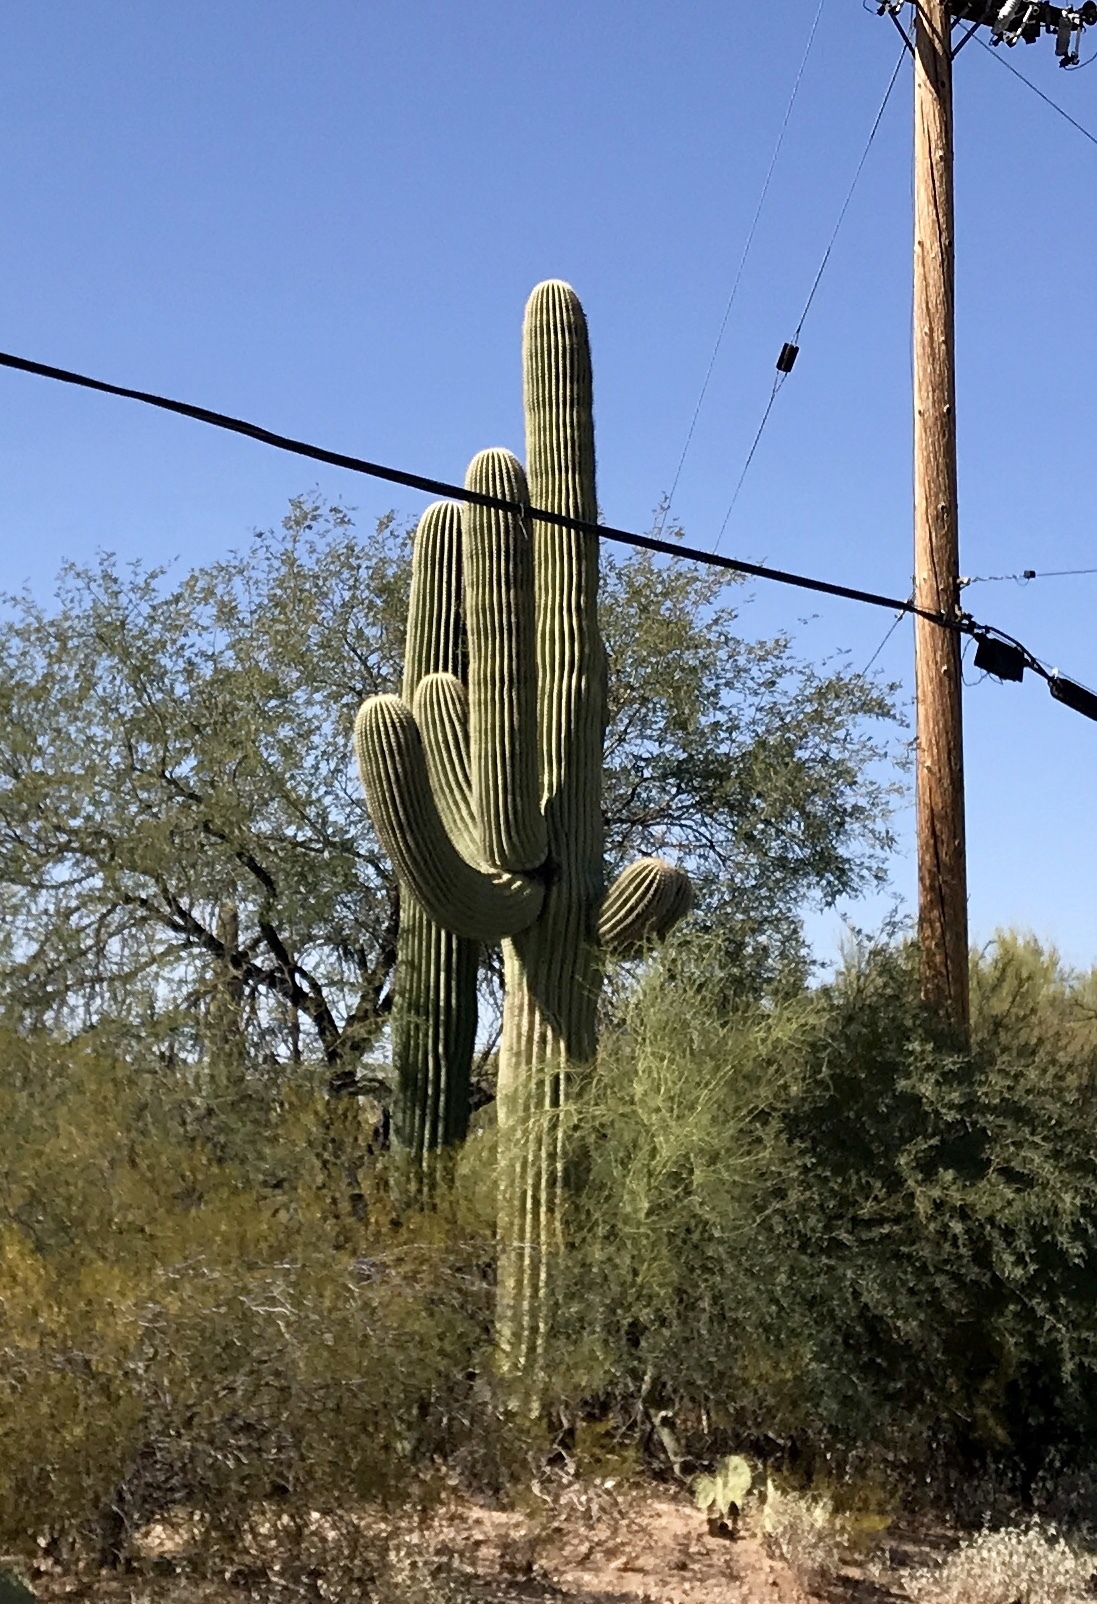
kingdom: Plantae
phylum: Tracheophyta
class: Magnoliopsida
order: Caryophyllales
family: Cactaceae
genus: Carnegiea
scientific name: Carnegiea gigantea
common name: Saguaro
